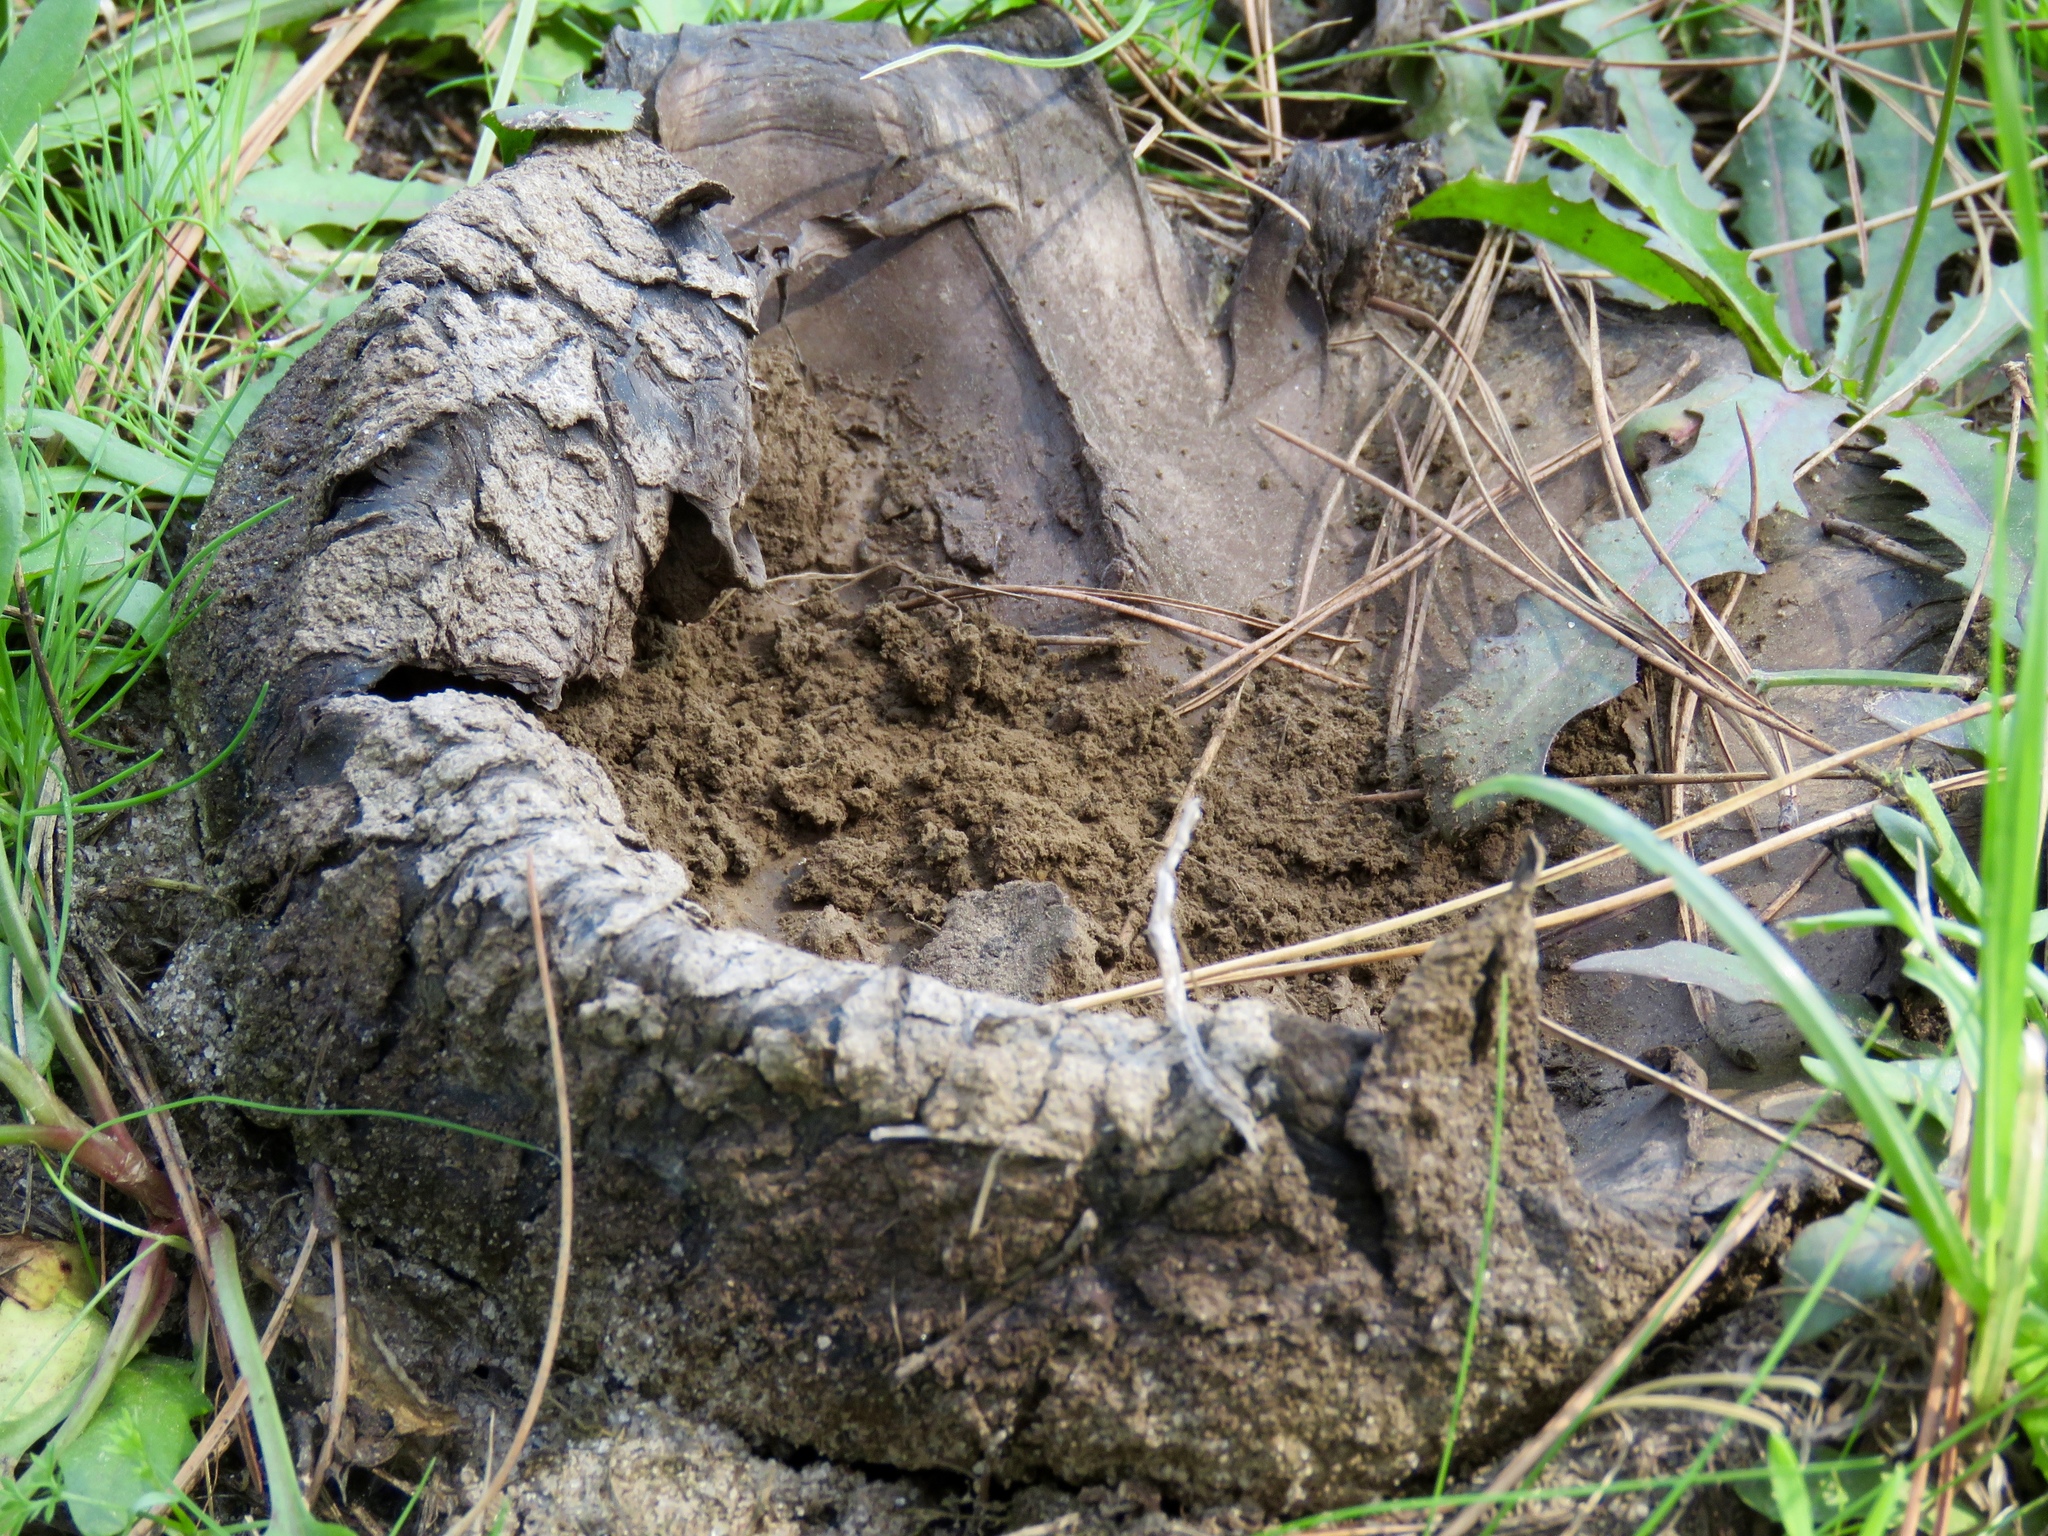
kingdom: Fungi
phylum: Basidiomycota
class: Agaricomycetes
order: Boletales
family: Sclerodermataceae
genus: Scleroderma
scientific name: Scleroderma polyrhizum
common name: Many-rooted earthball
